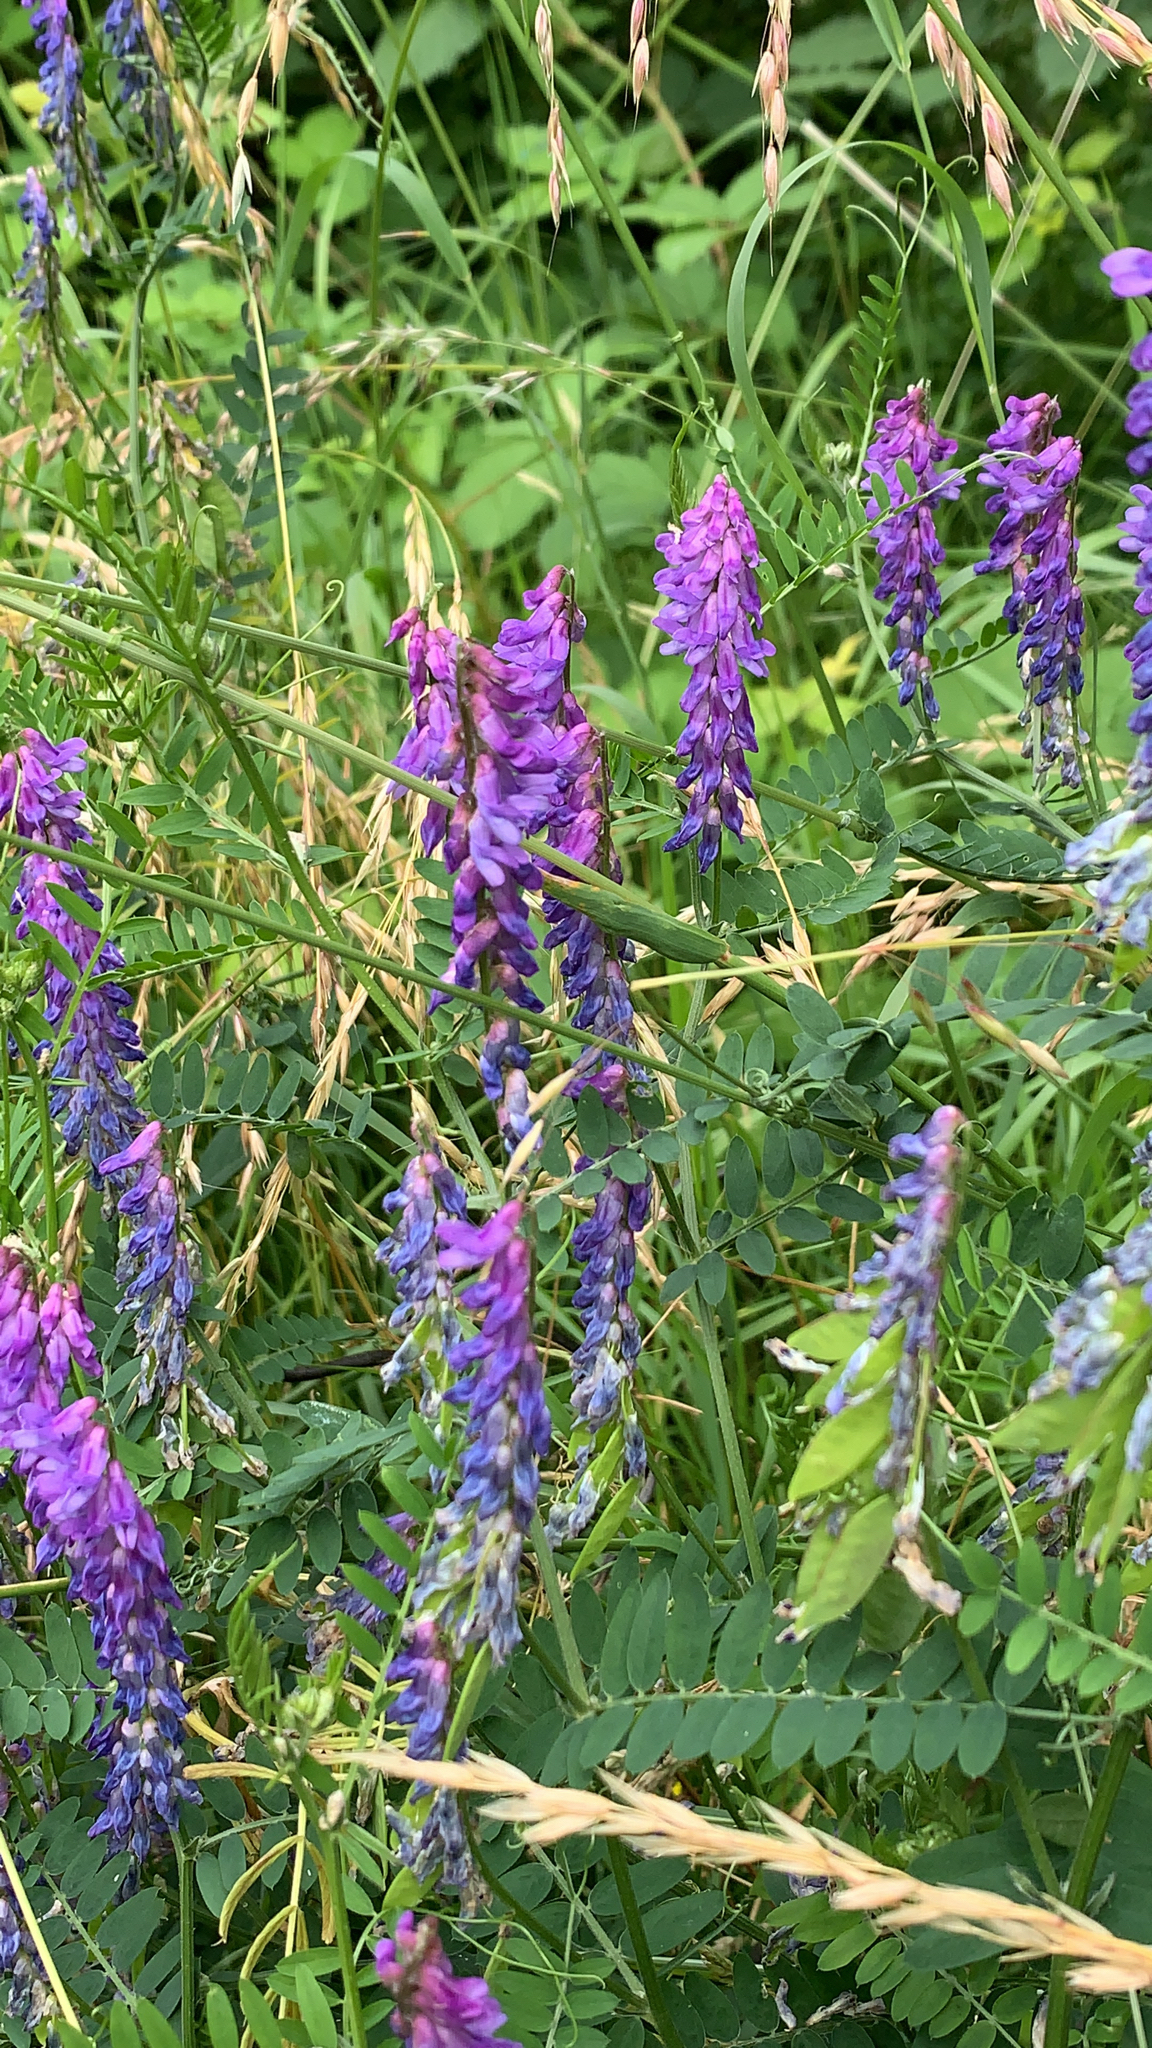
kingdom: Plantae
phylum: Tracheophyta
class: Magnoliopsida
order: Fabales
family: Fabaceae
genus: Vicia
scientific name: Vicia cracca
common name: Bird vetch
